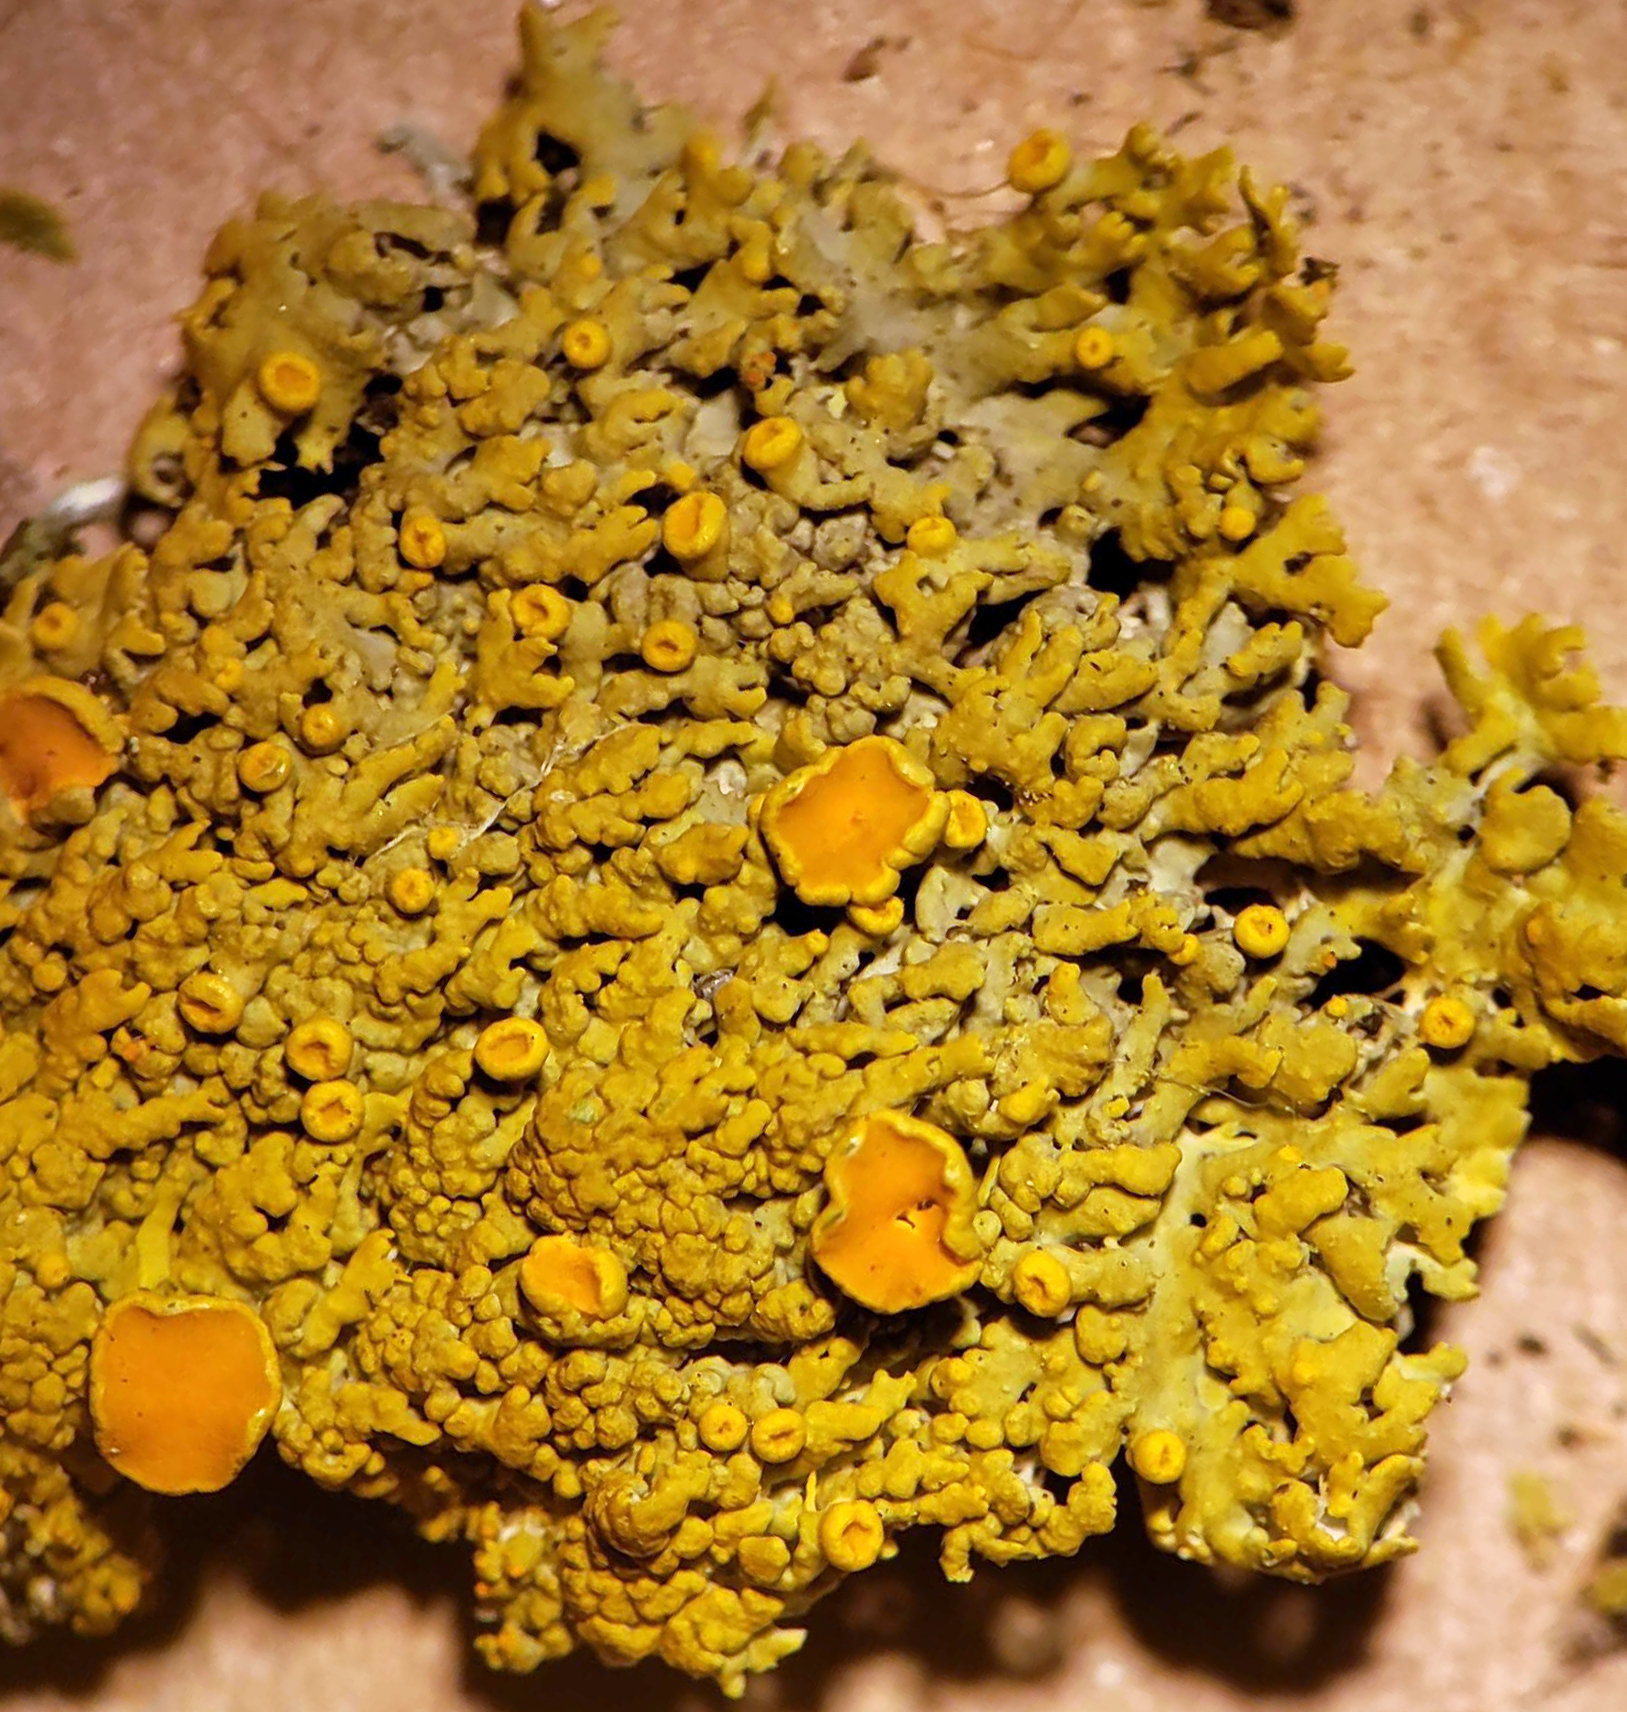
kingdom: Fungi
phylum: Ascomycota
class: Lecanoromycetes
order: Teloschistales
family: Teloschistaceae
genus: Gallowayella
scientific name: Gallowayella hasseana
